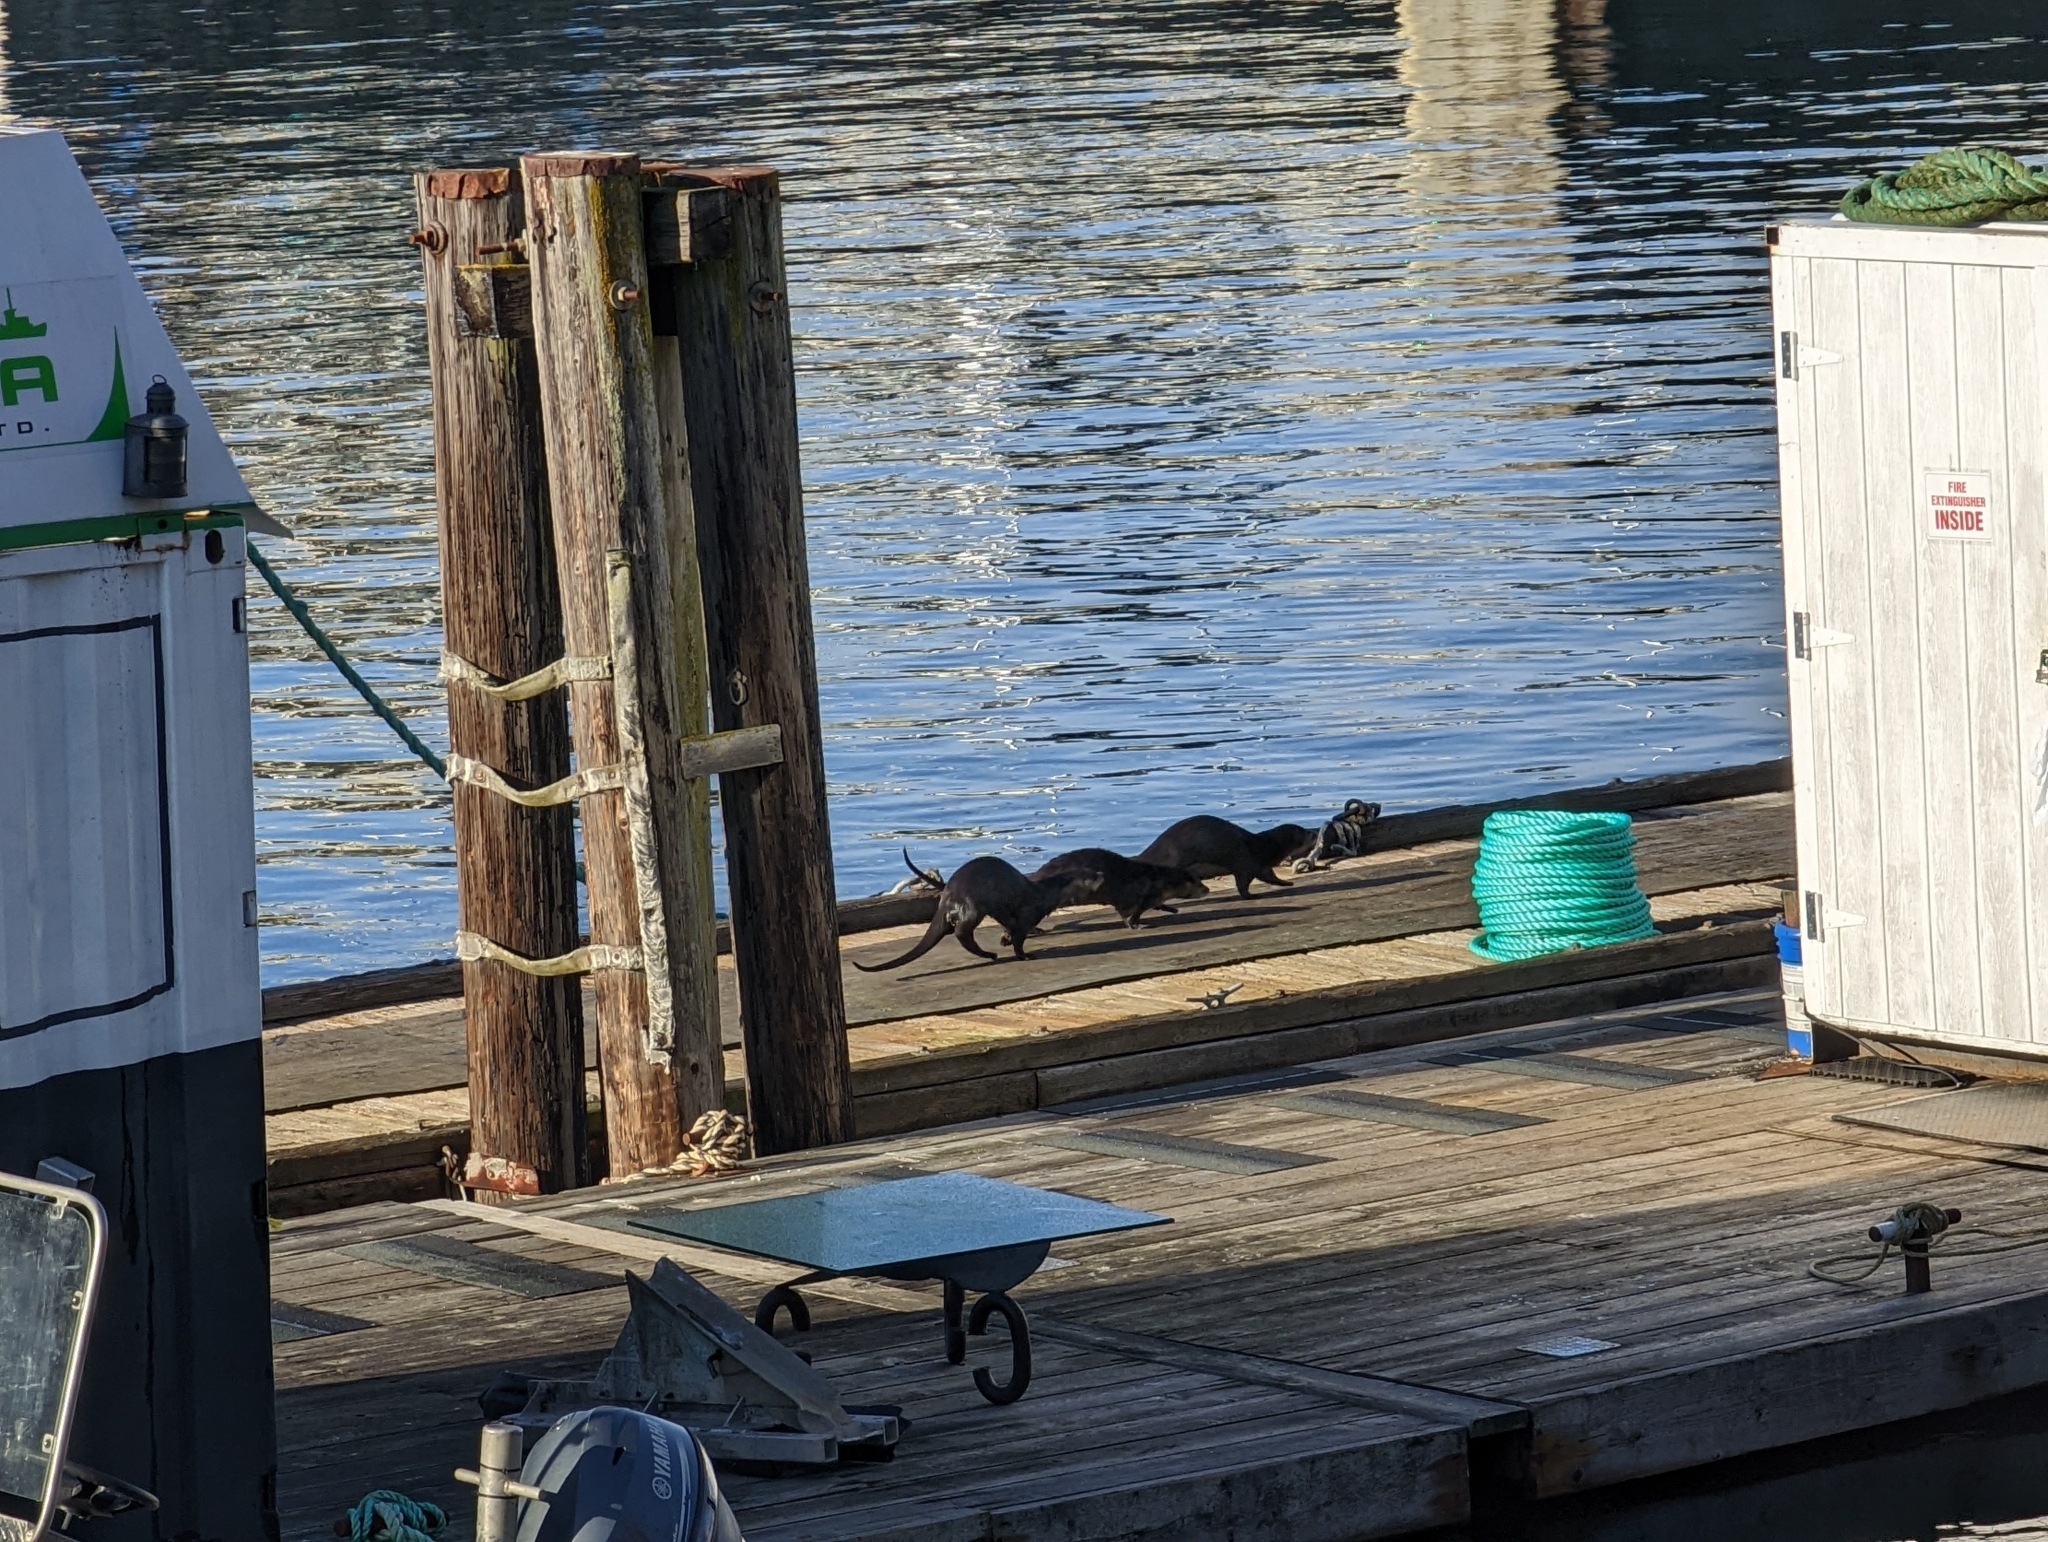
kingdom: Animalia
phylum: Chordata
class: Mammalia
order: Carnivora
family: Mustelidae
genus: Lontra
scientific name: Lontra canadensis
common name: North american river otter
